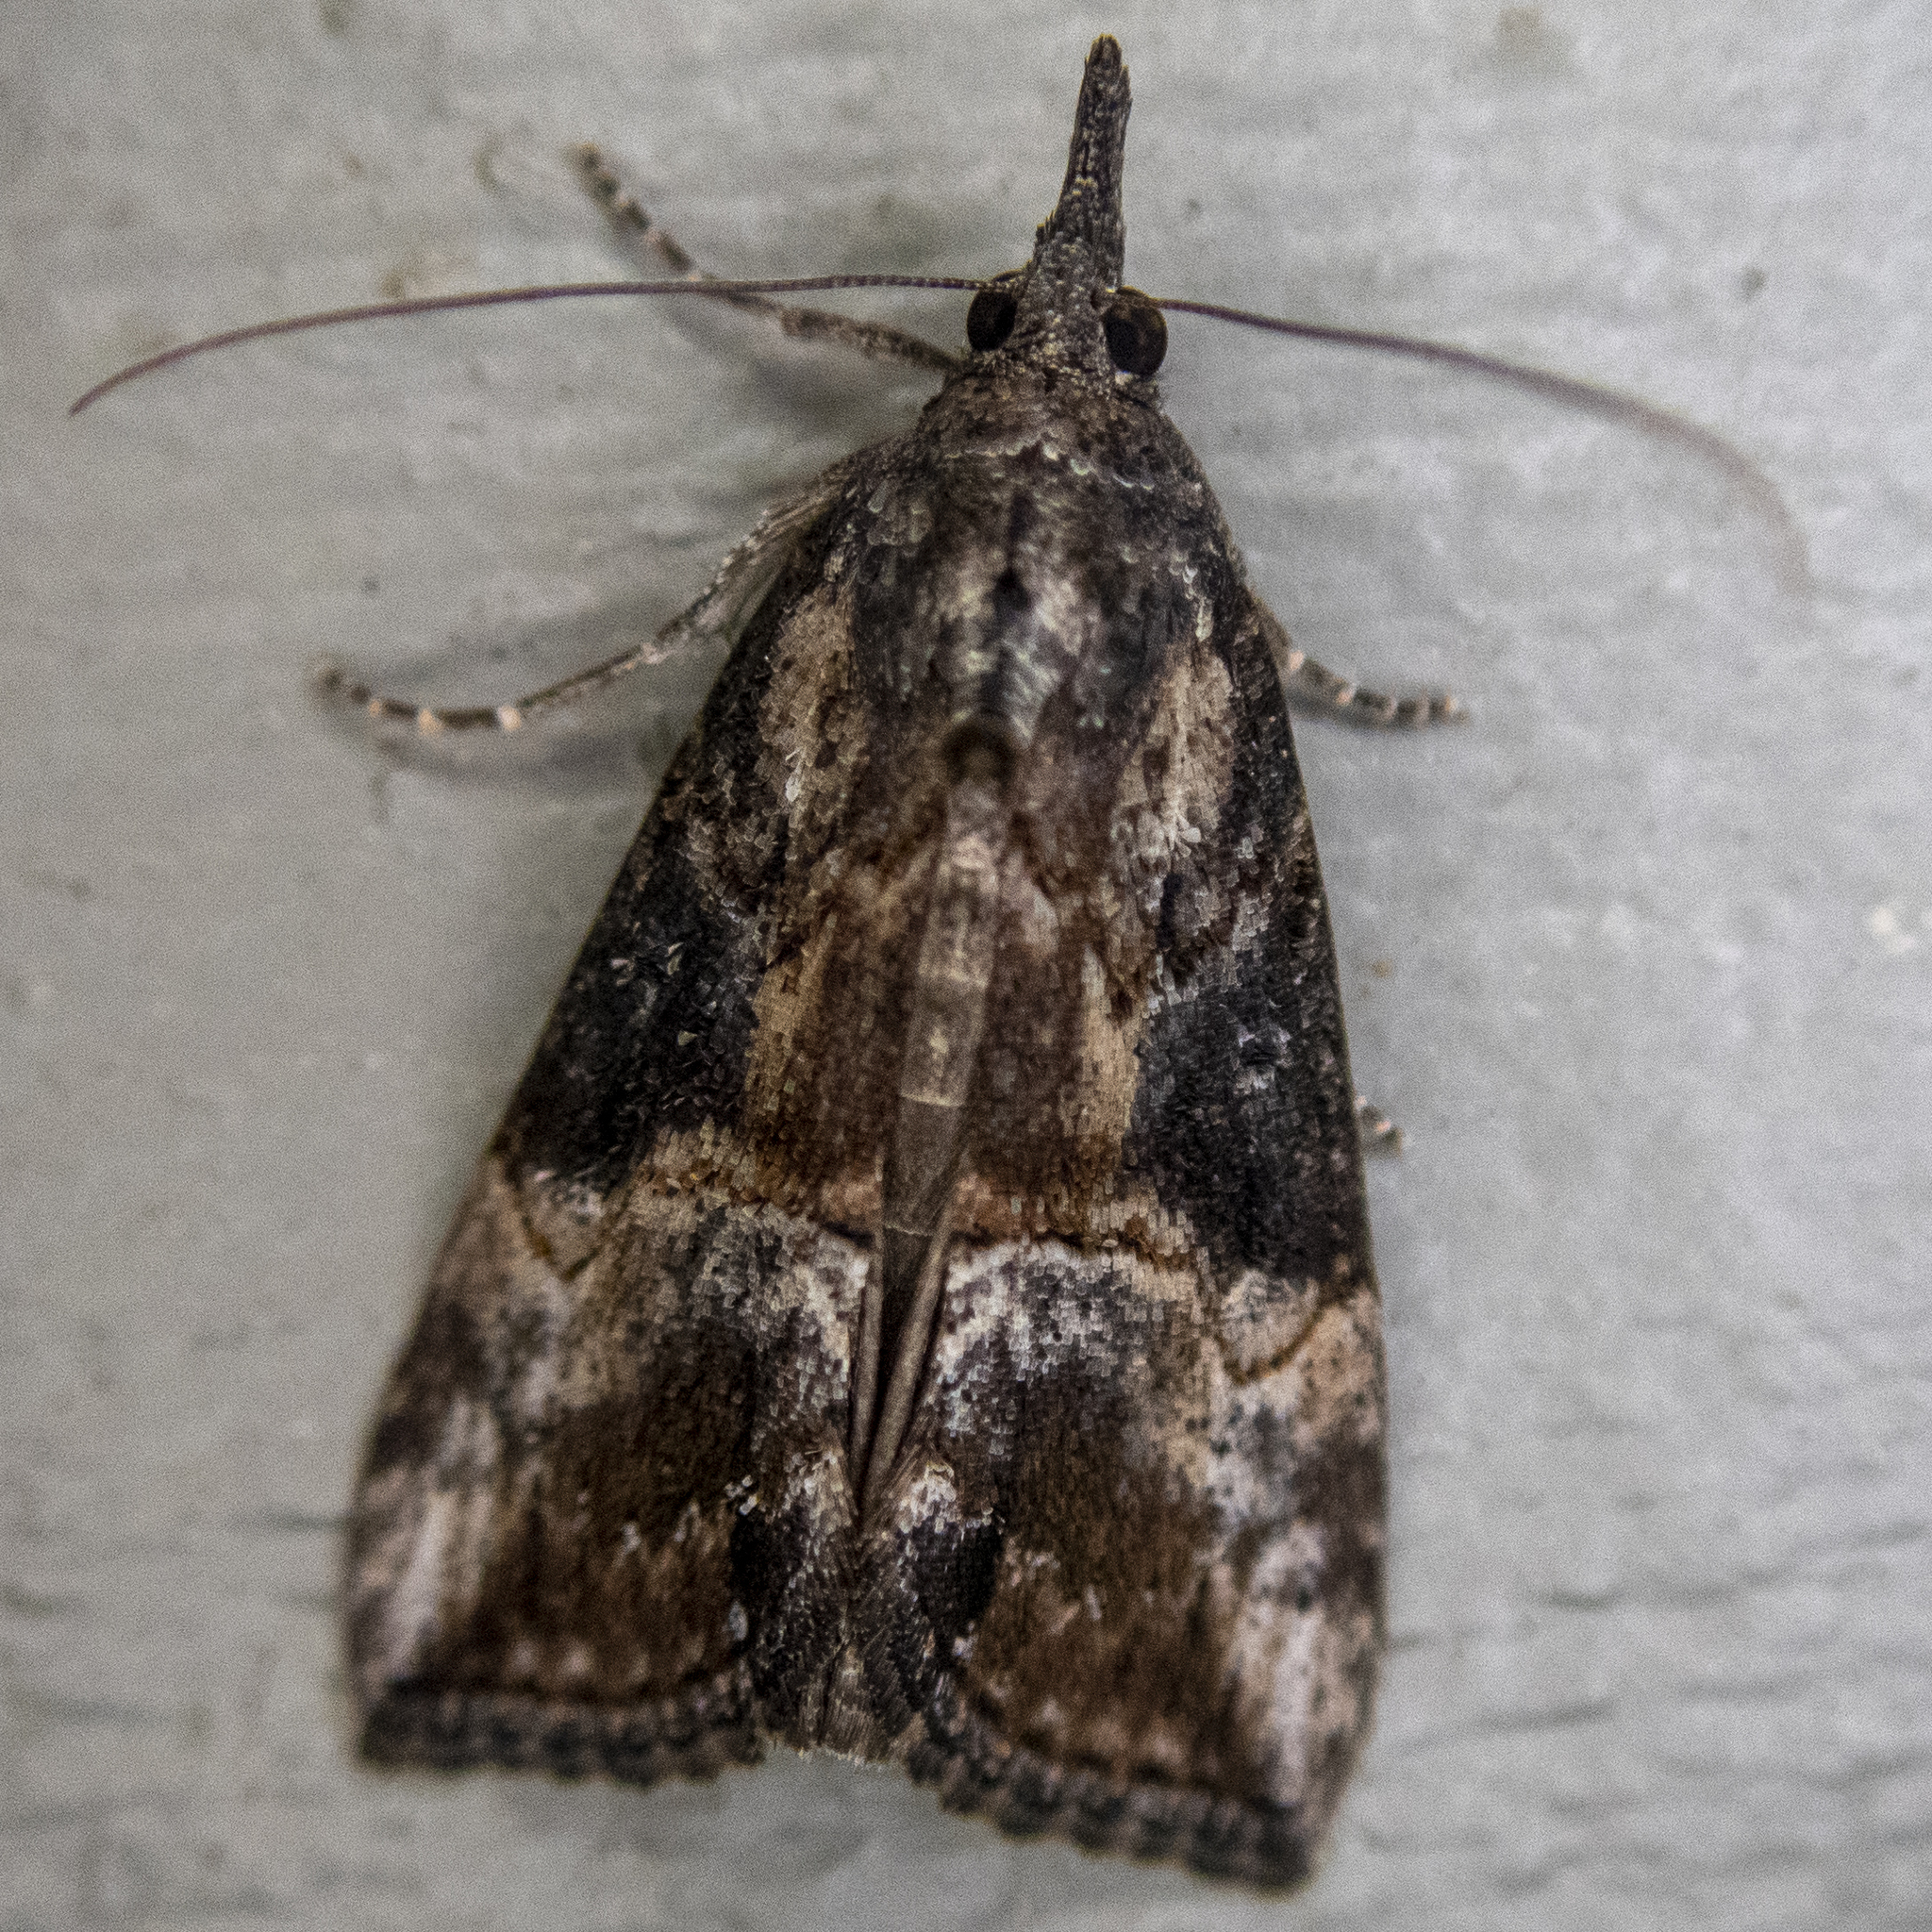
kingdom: Animalia
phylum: Arthropoda
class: Insecta
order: Lepidoptera
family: Erebidae
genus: Hypena
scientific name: Hypena scabra
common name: Green cloverworm
